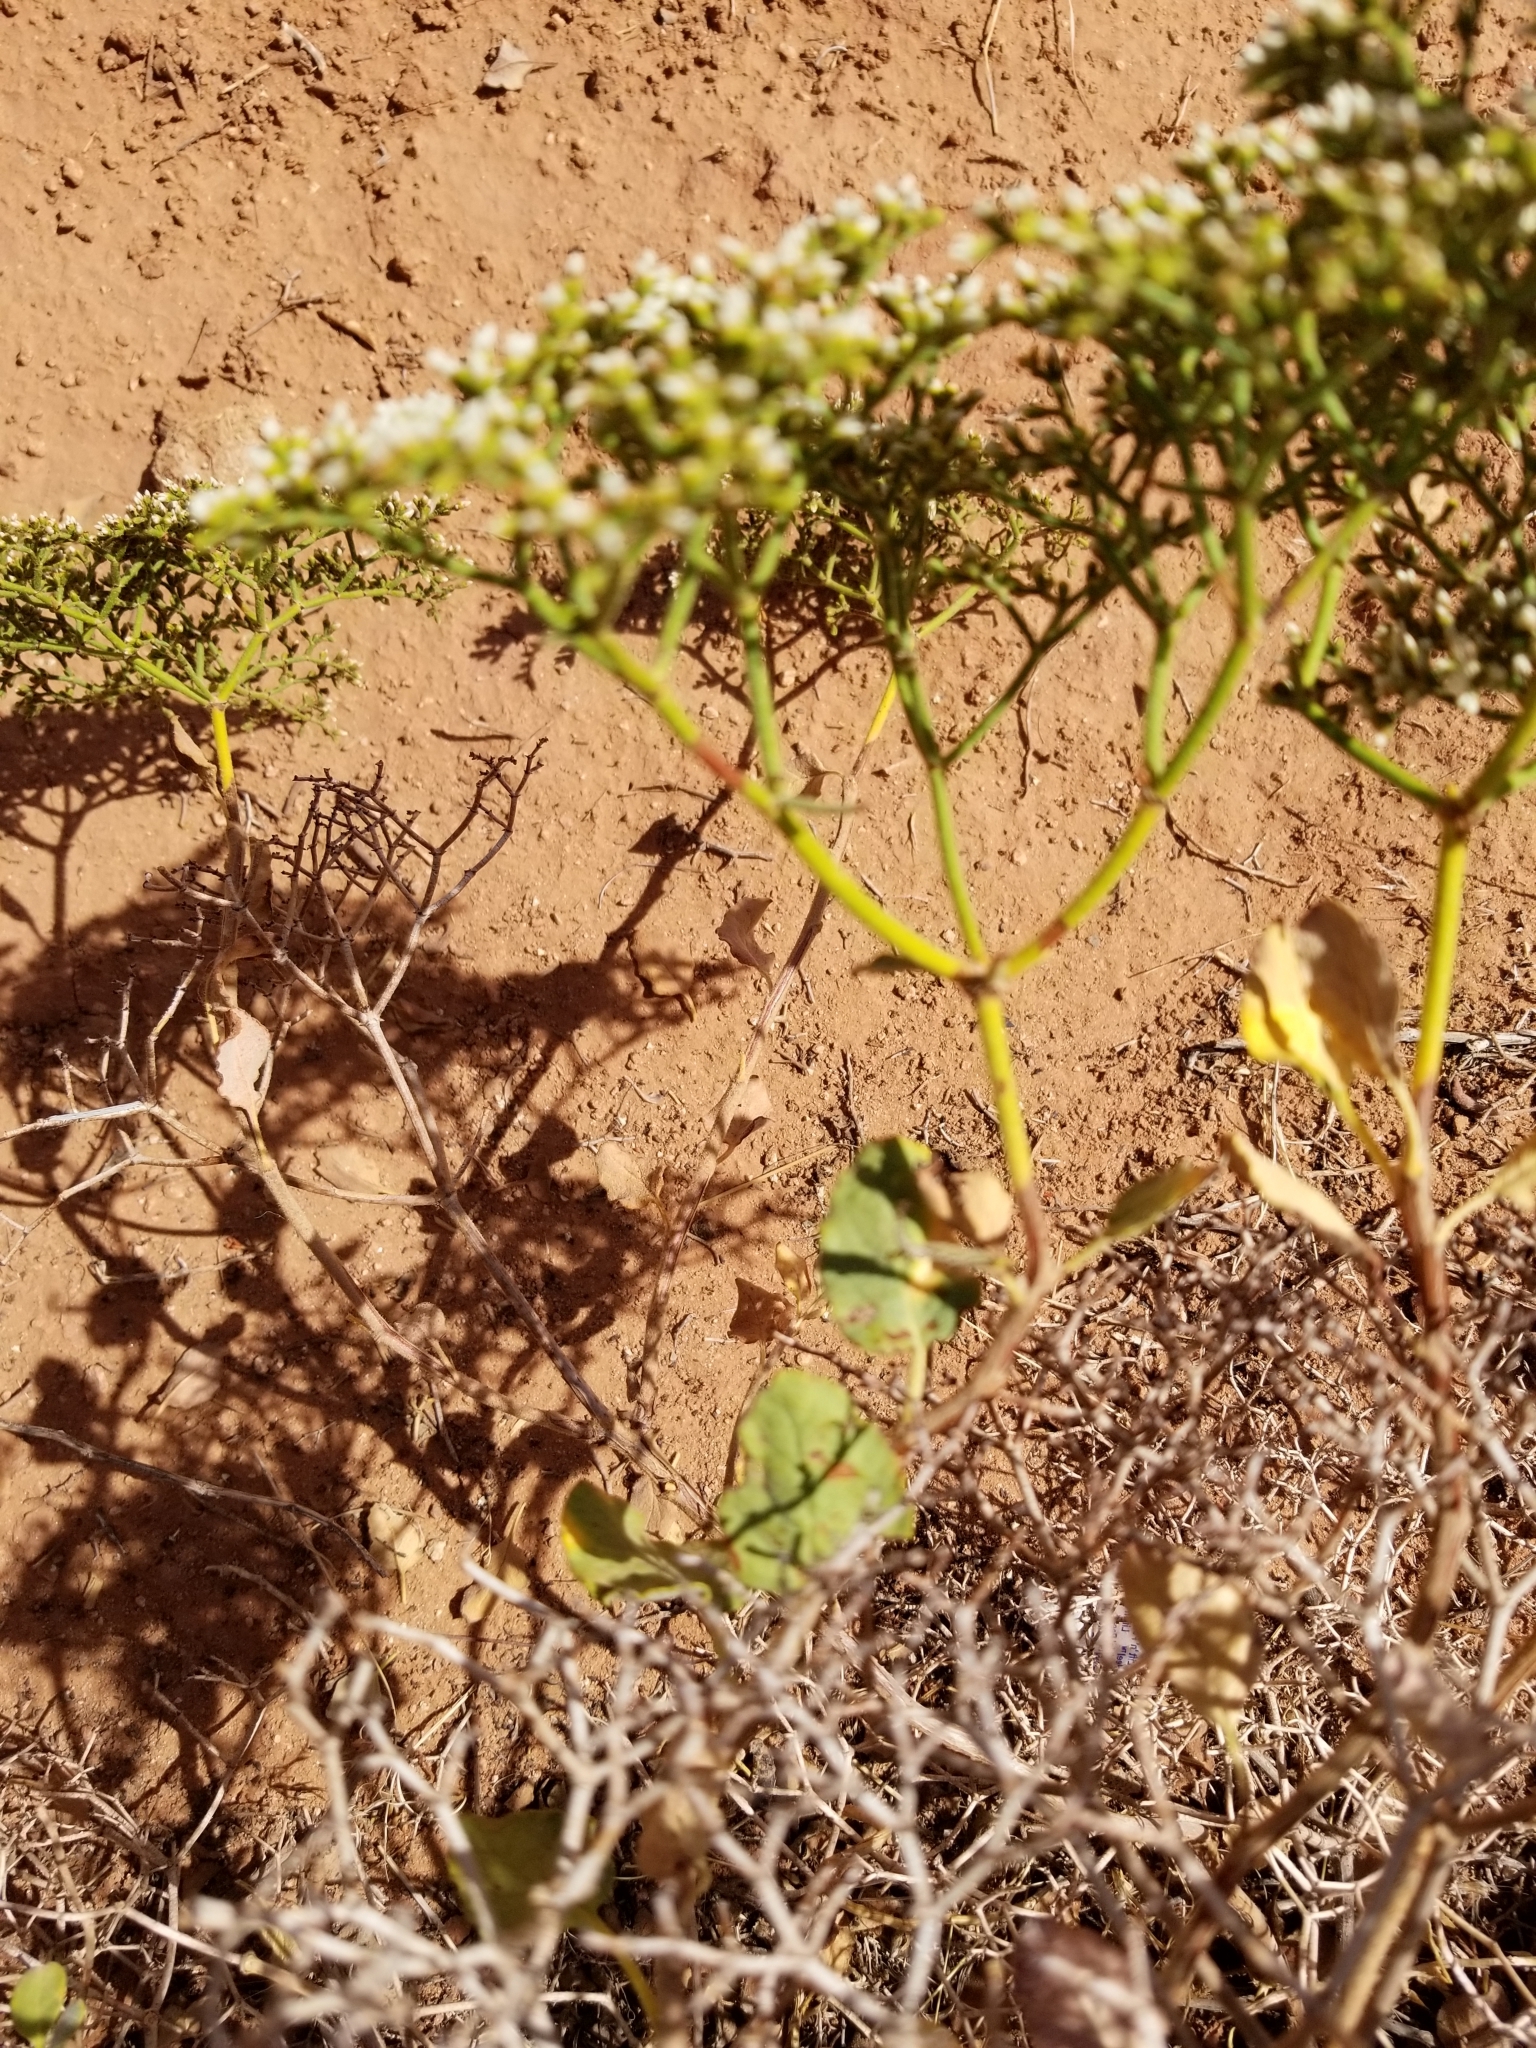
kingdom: Plantae
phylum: Tracheophyta
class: Magnoliopsida
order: Caryophyllales
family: Polygonaceae
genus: Eriogonum
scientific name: Eriogonum corymbosum
